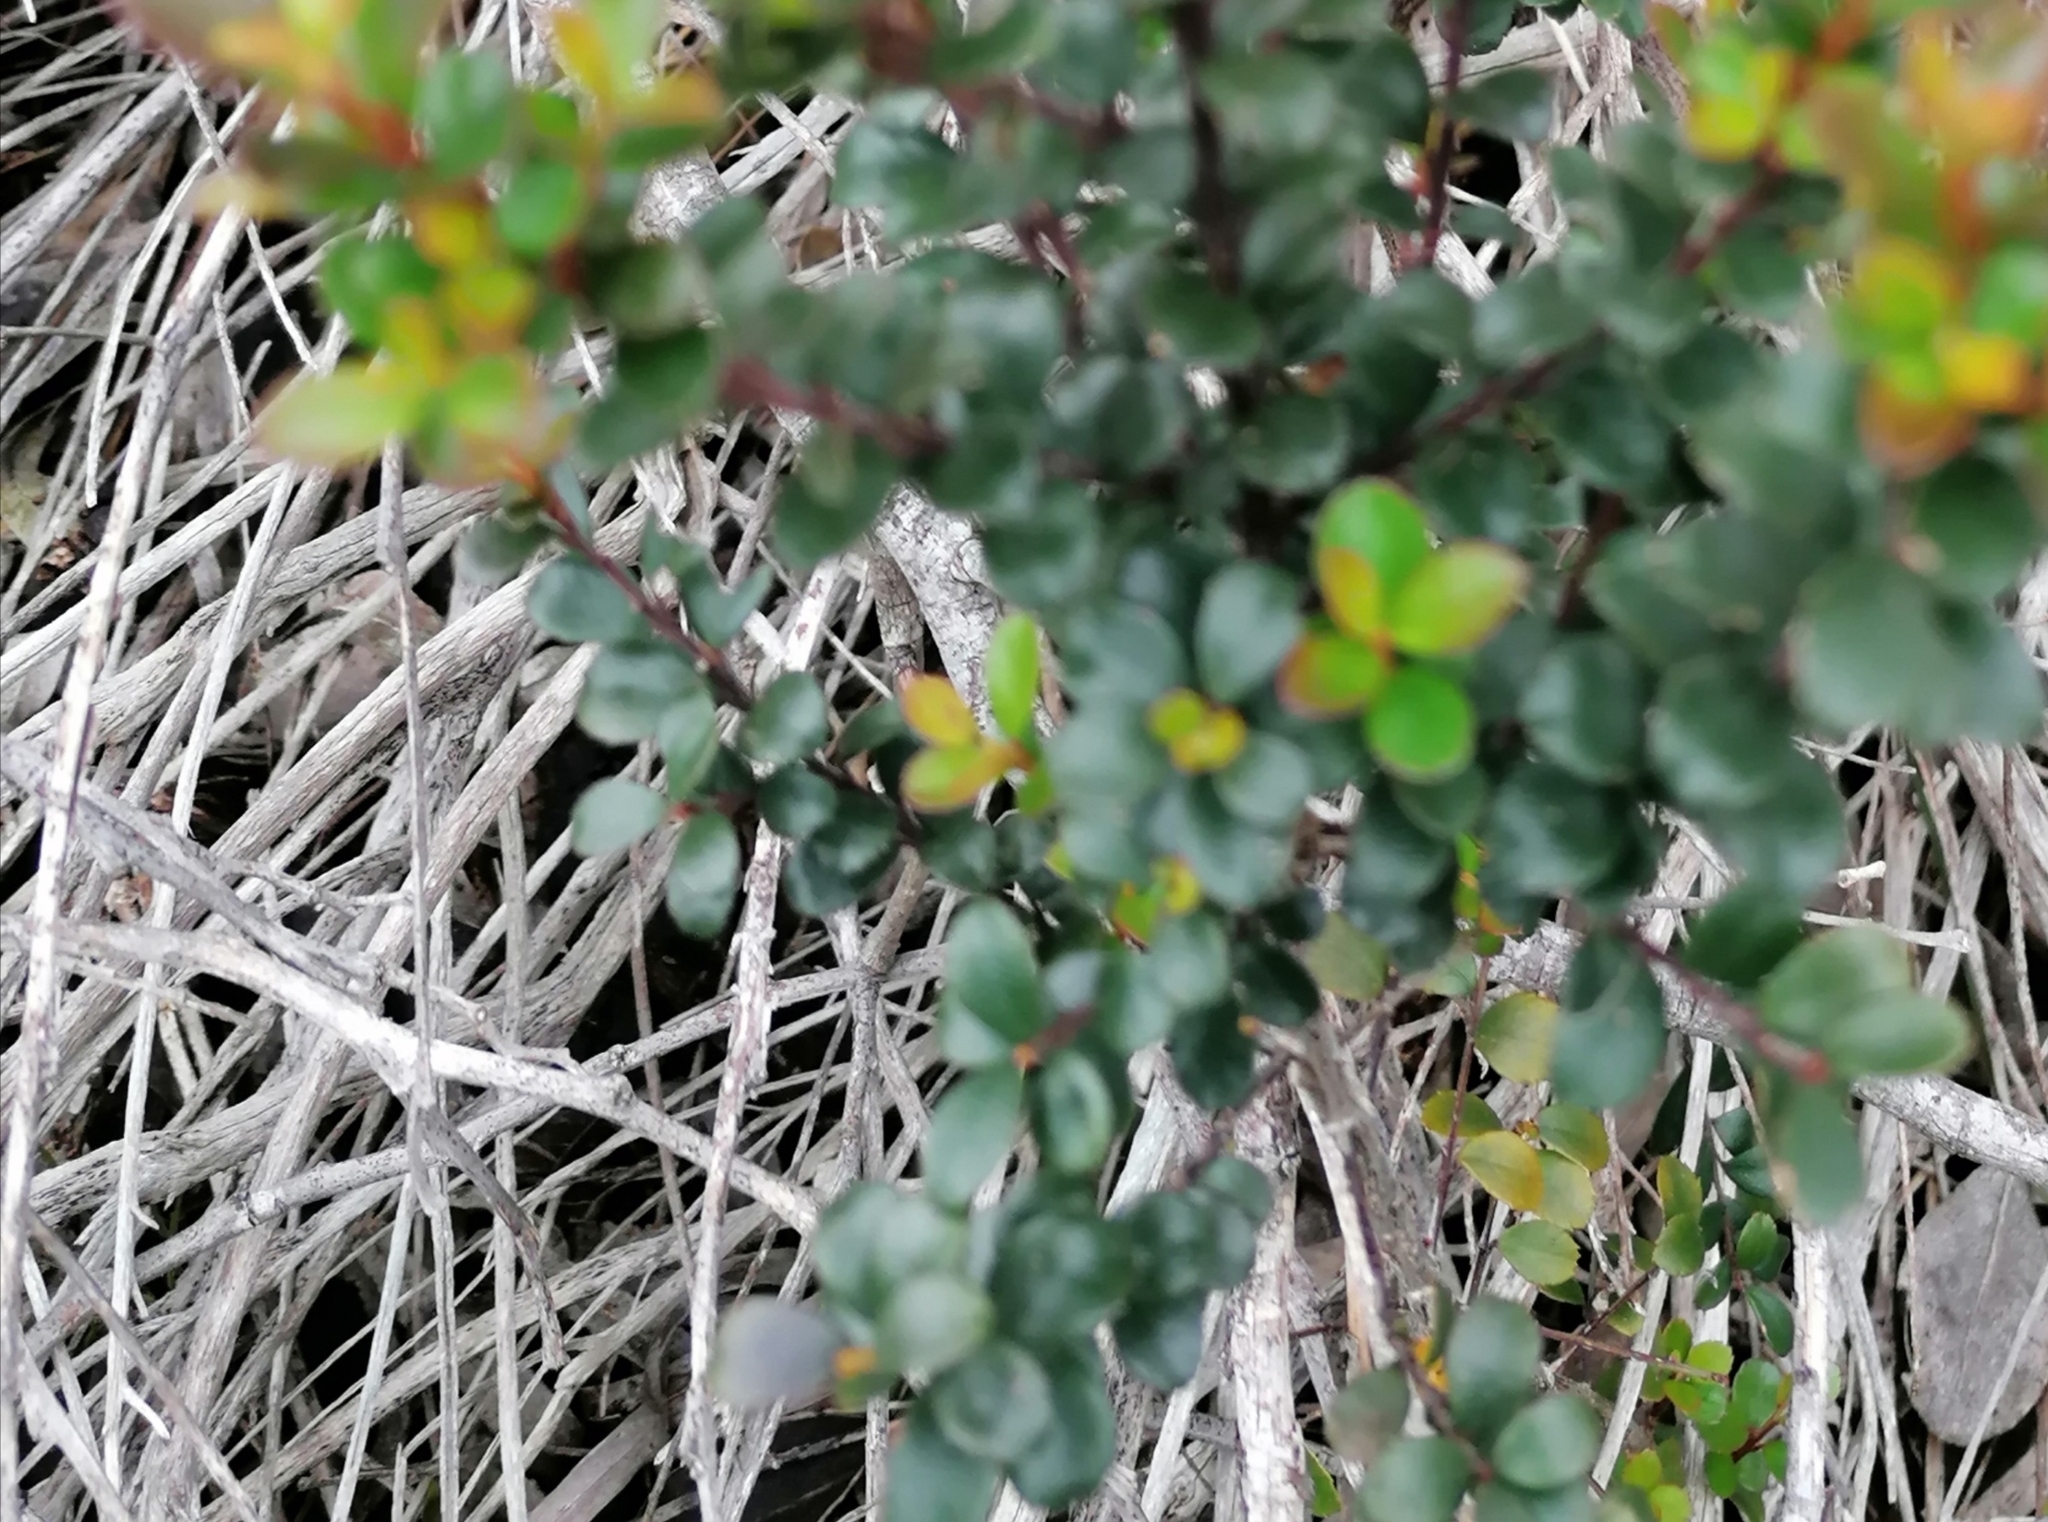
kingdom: Plantae
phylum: Tracheophyta
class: Magnoliopsida
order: Ericales
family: Primulaceae
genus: Myrsine
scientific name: Myrsine africana
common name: African-boxwood
